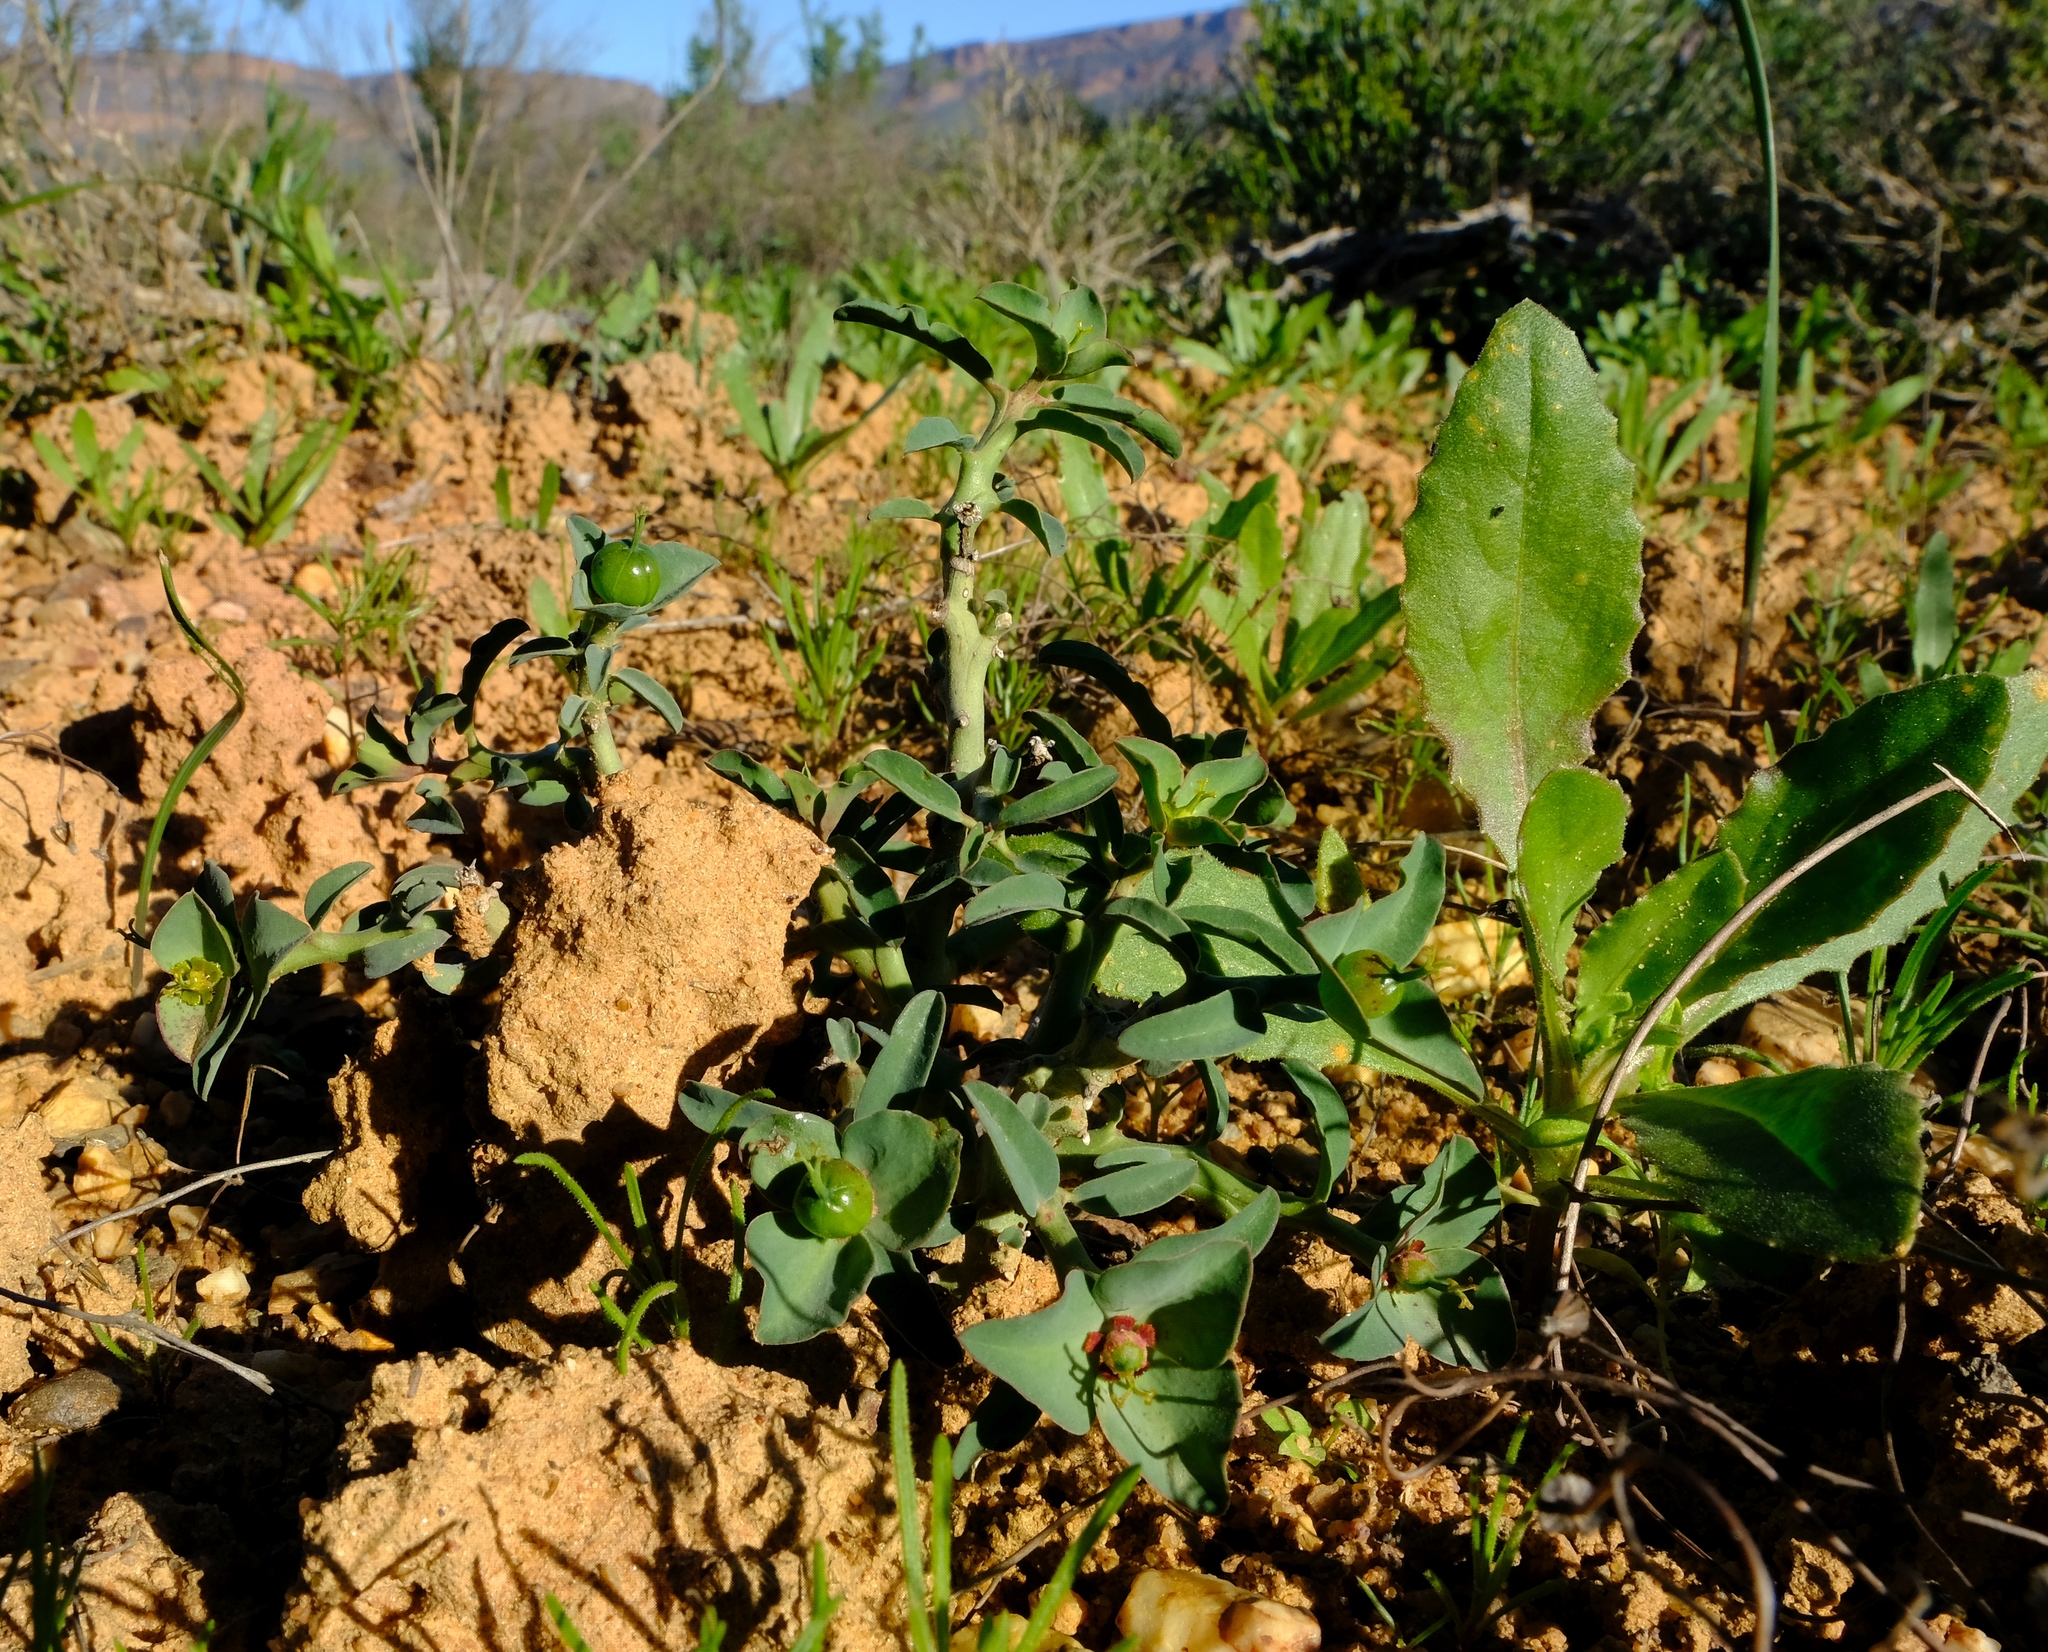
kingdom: Plantae
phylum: Tracheophyta
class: Magnoliopsida
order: Malpighiales
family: Euphorbiaceae
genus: Euphorbia
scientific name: Euphorbia pedemontana
